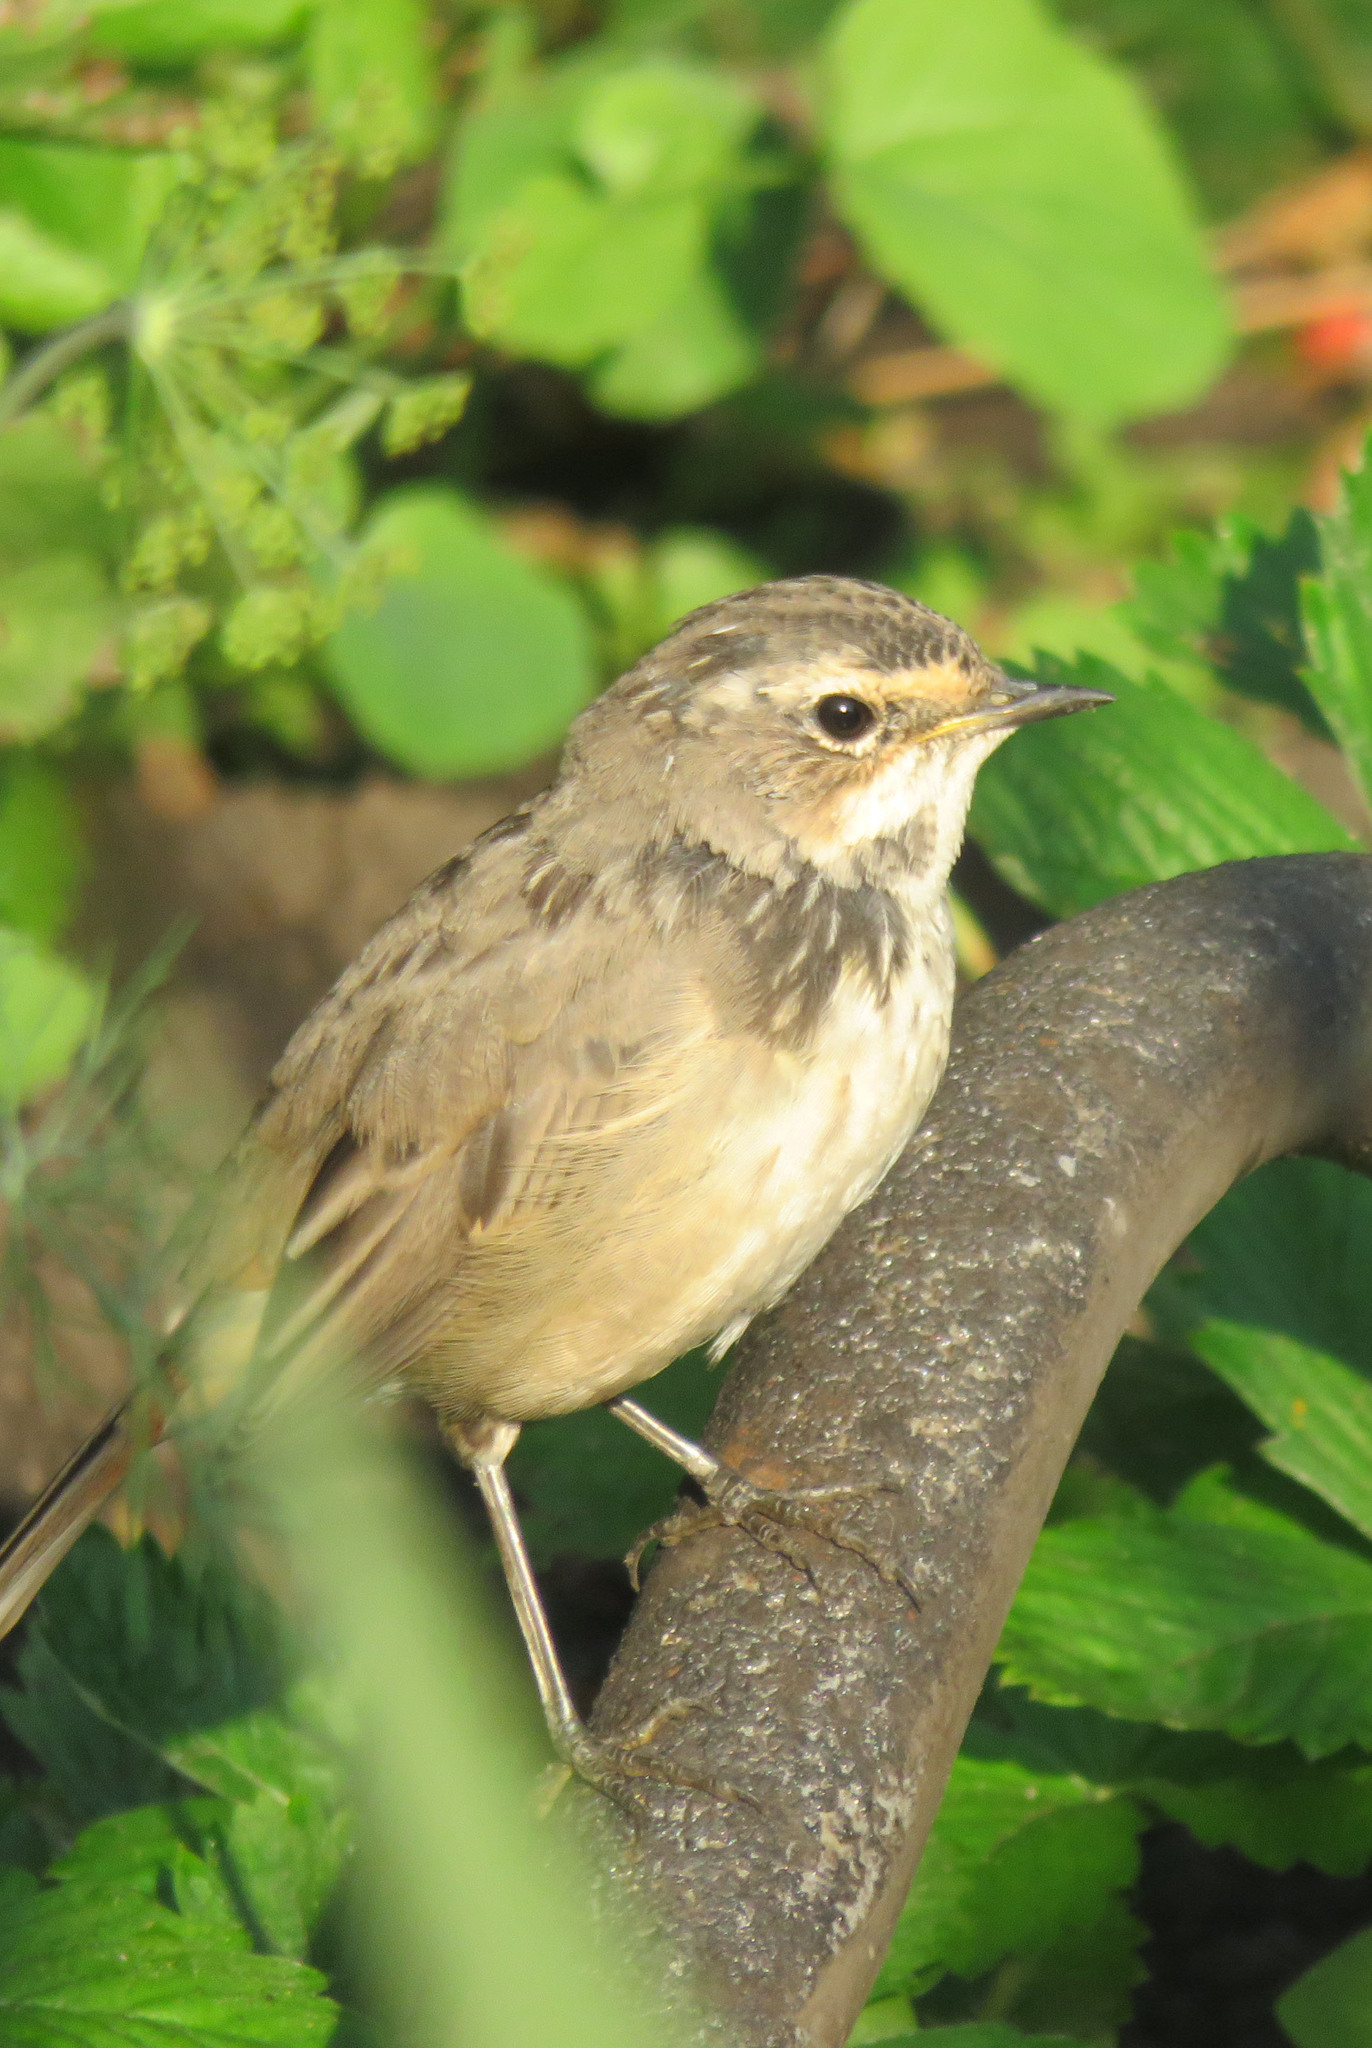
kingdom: Animalia
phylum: Chordata
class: Aves
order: Passeriformes
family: Muscicapidae
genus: Luscinia
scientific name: Luscinia svecica
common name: Bluethroat
